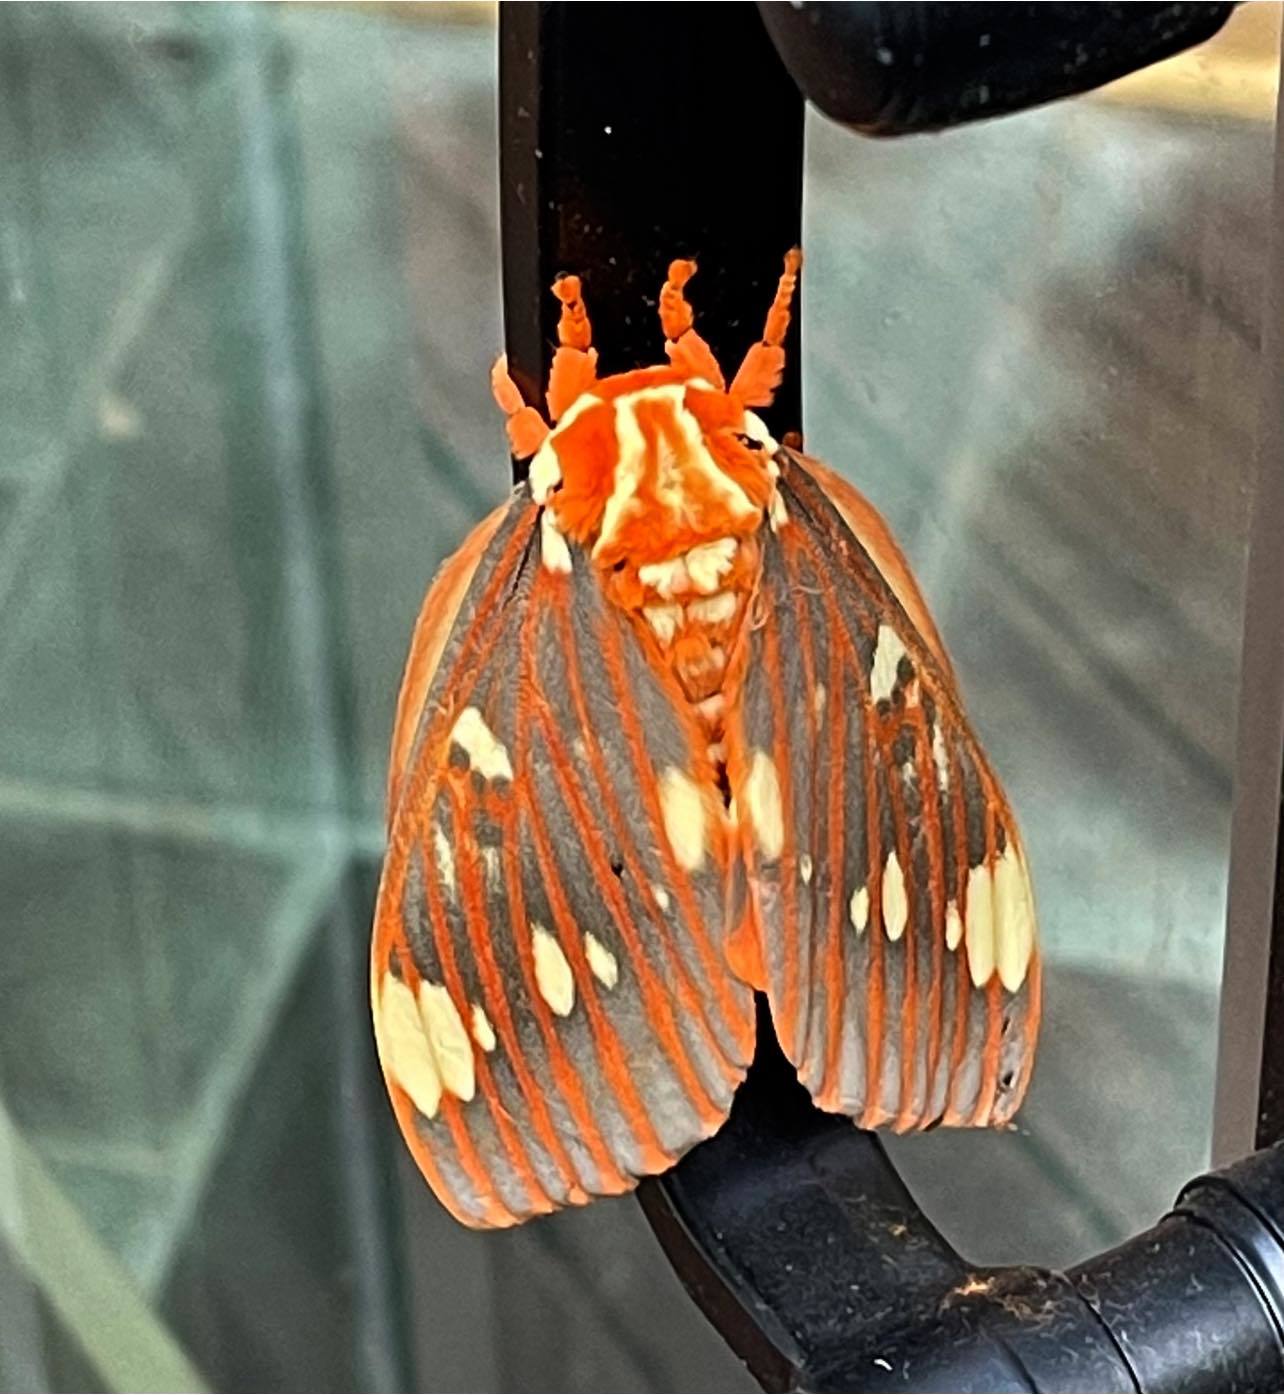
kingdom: Animalia
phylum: Arthropoda
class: Insecta
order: Lepidoptera
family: Saturniidae
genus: Citheronia
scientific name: Citheronia regalis
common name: Hickory horned devil
